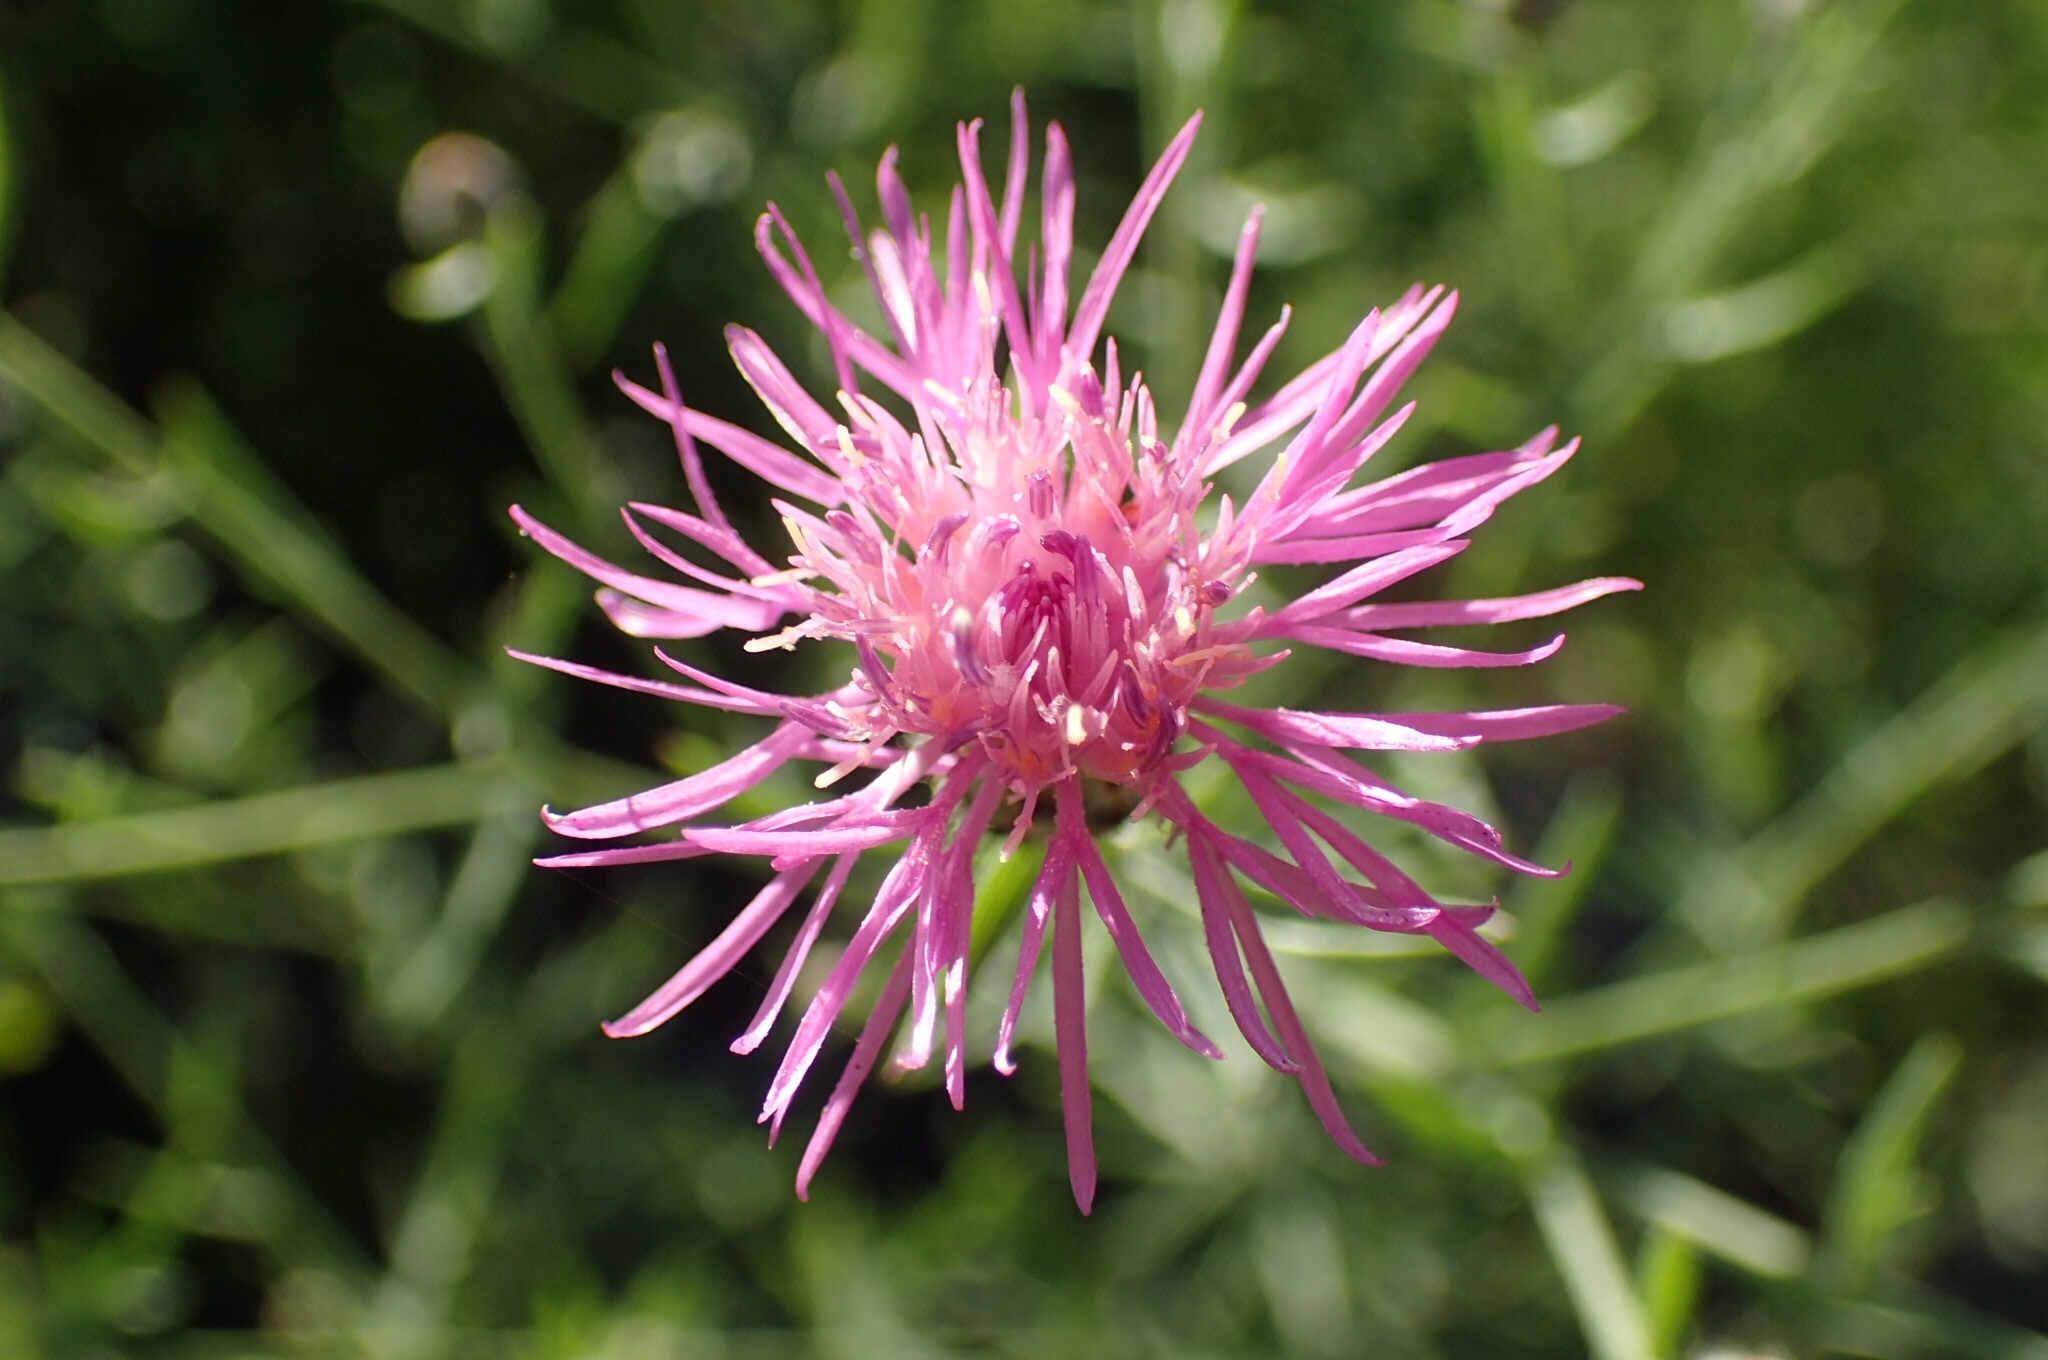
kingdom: Plantae
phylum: Tracheophyta
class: Magnoliopsida
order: Asterales
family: Asteraceae
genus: Centaurea
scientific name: Centaurea stoebe
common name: Spotted knapweed
